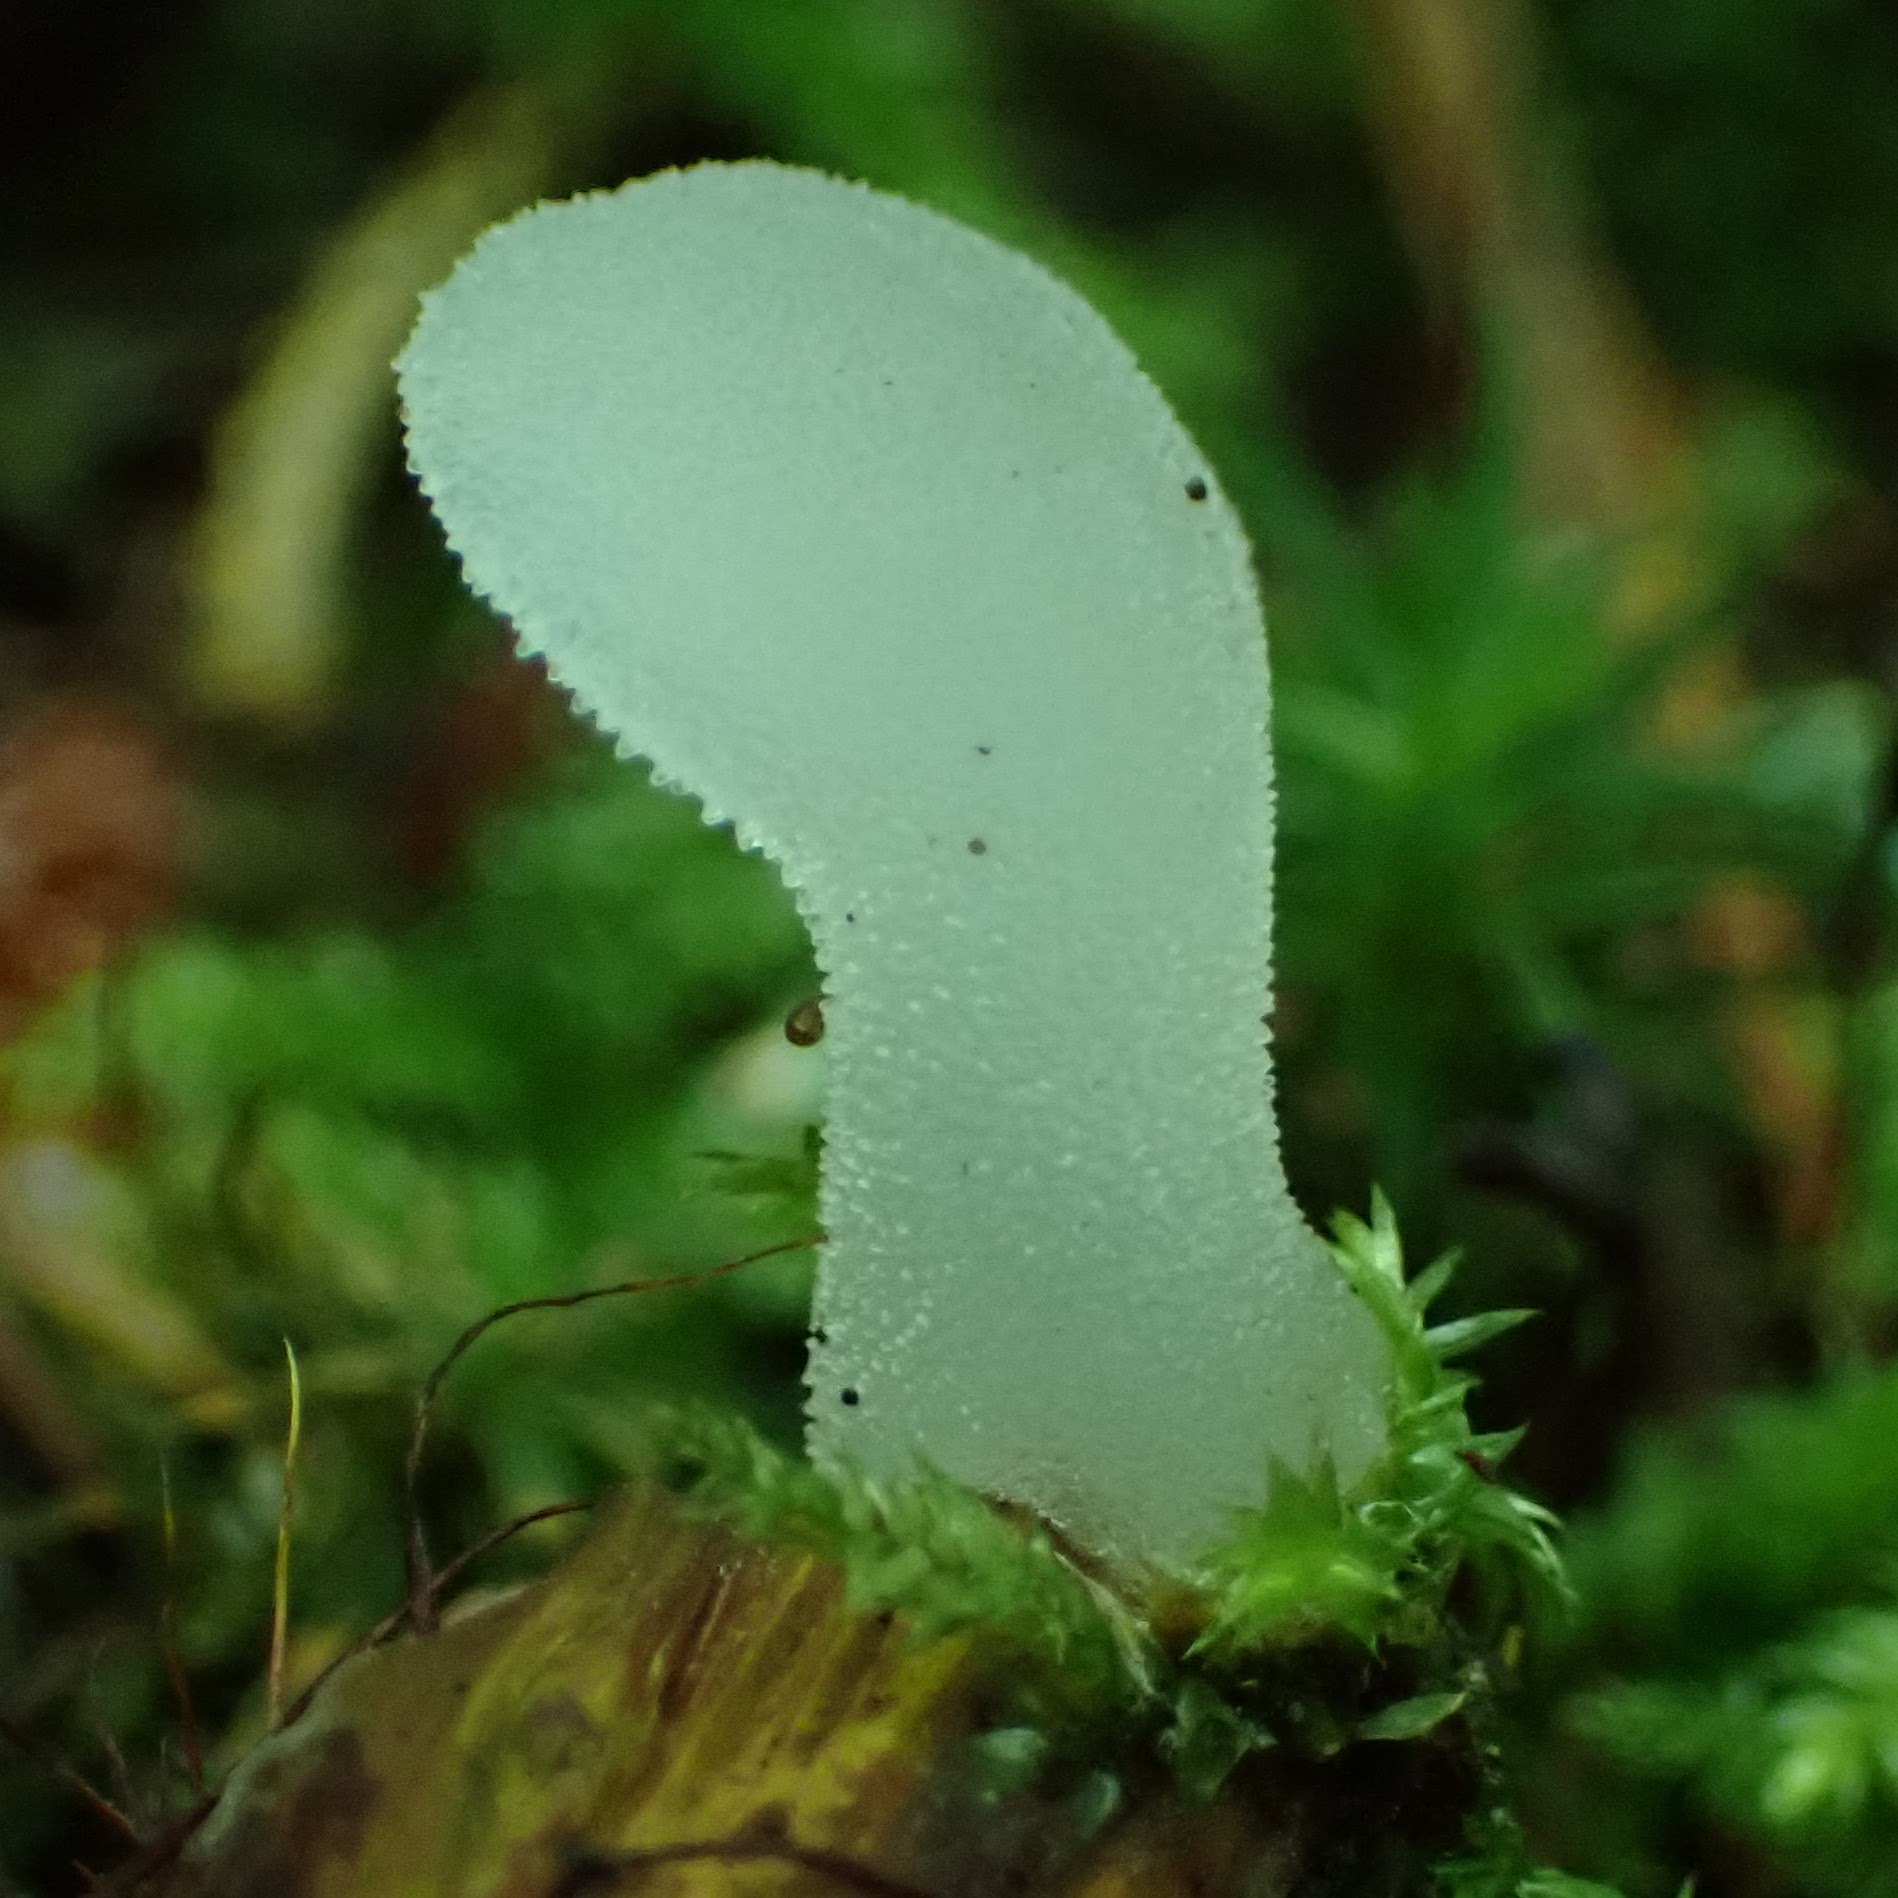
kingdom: Fungi
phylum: Basidiomycota
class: Agaricomycetes
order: Auriculariales
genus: Pseudohydnum
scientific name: Pseudohydnum gelatinosum
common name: Jelly tongue
